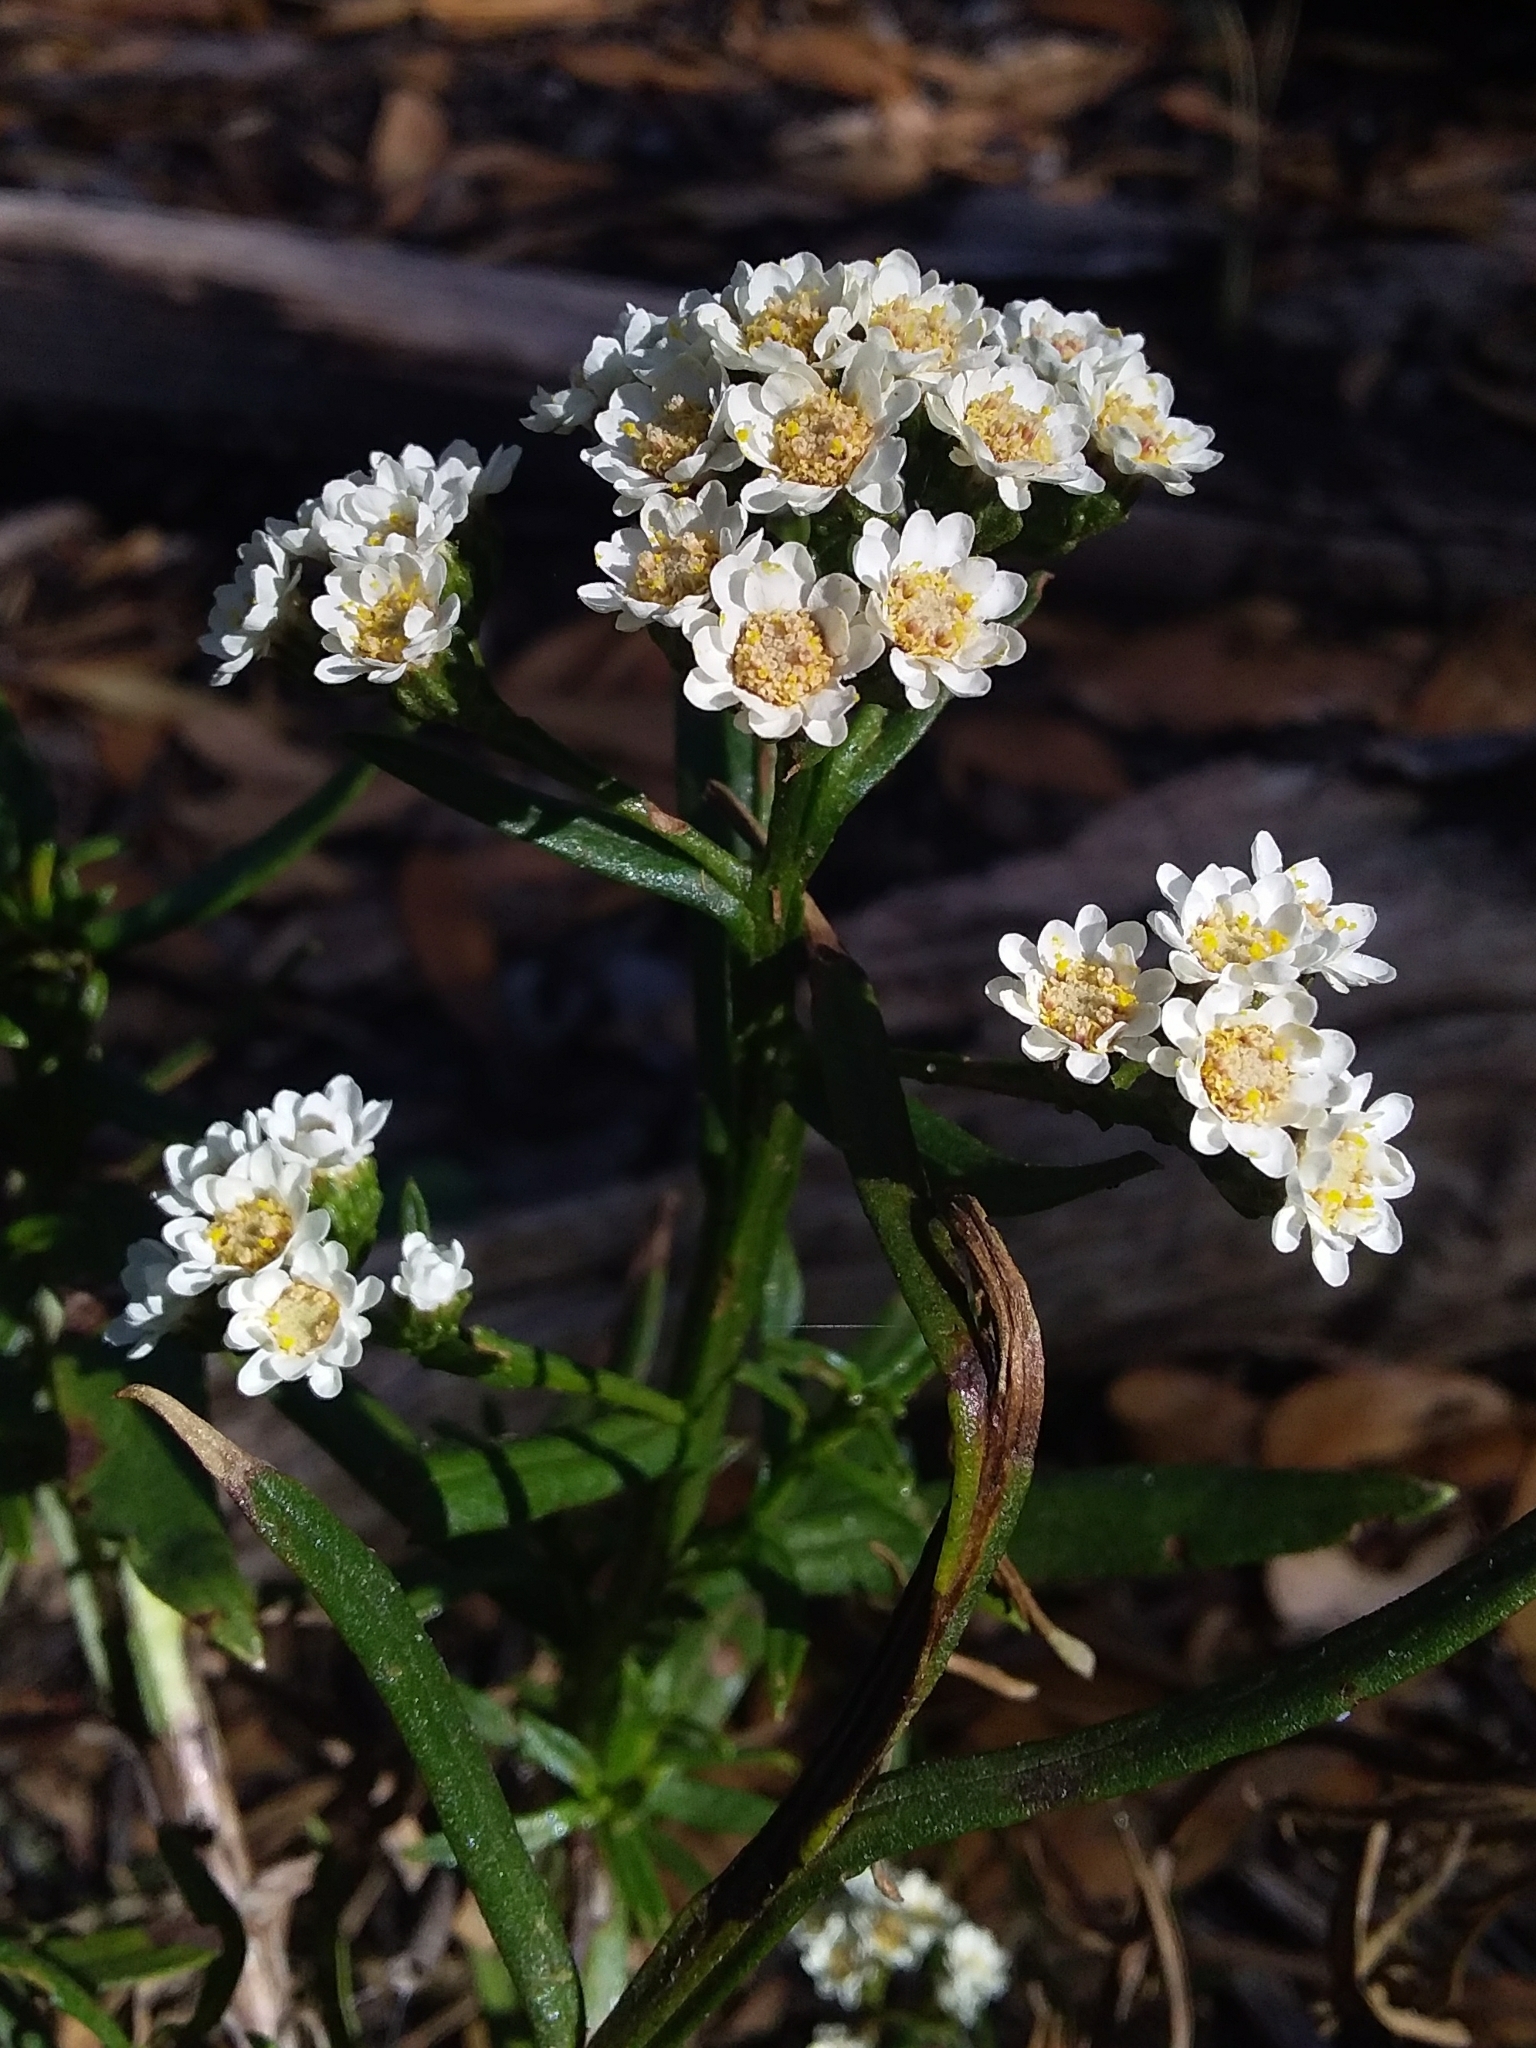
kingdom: Plantae
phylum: Tracheophyta
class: Magnoliopsida
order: Asterales
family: Asteraceae
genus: Ixodia
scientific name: Ixodia achillaeoides
